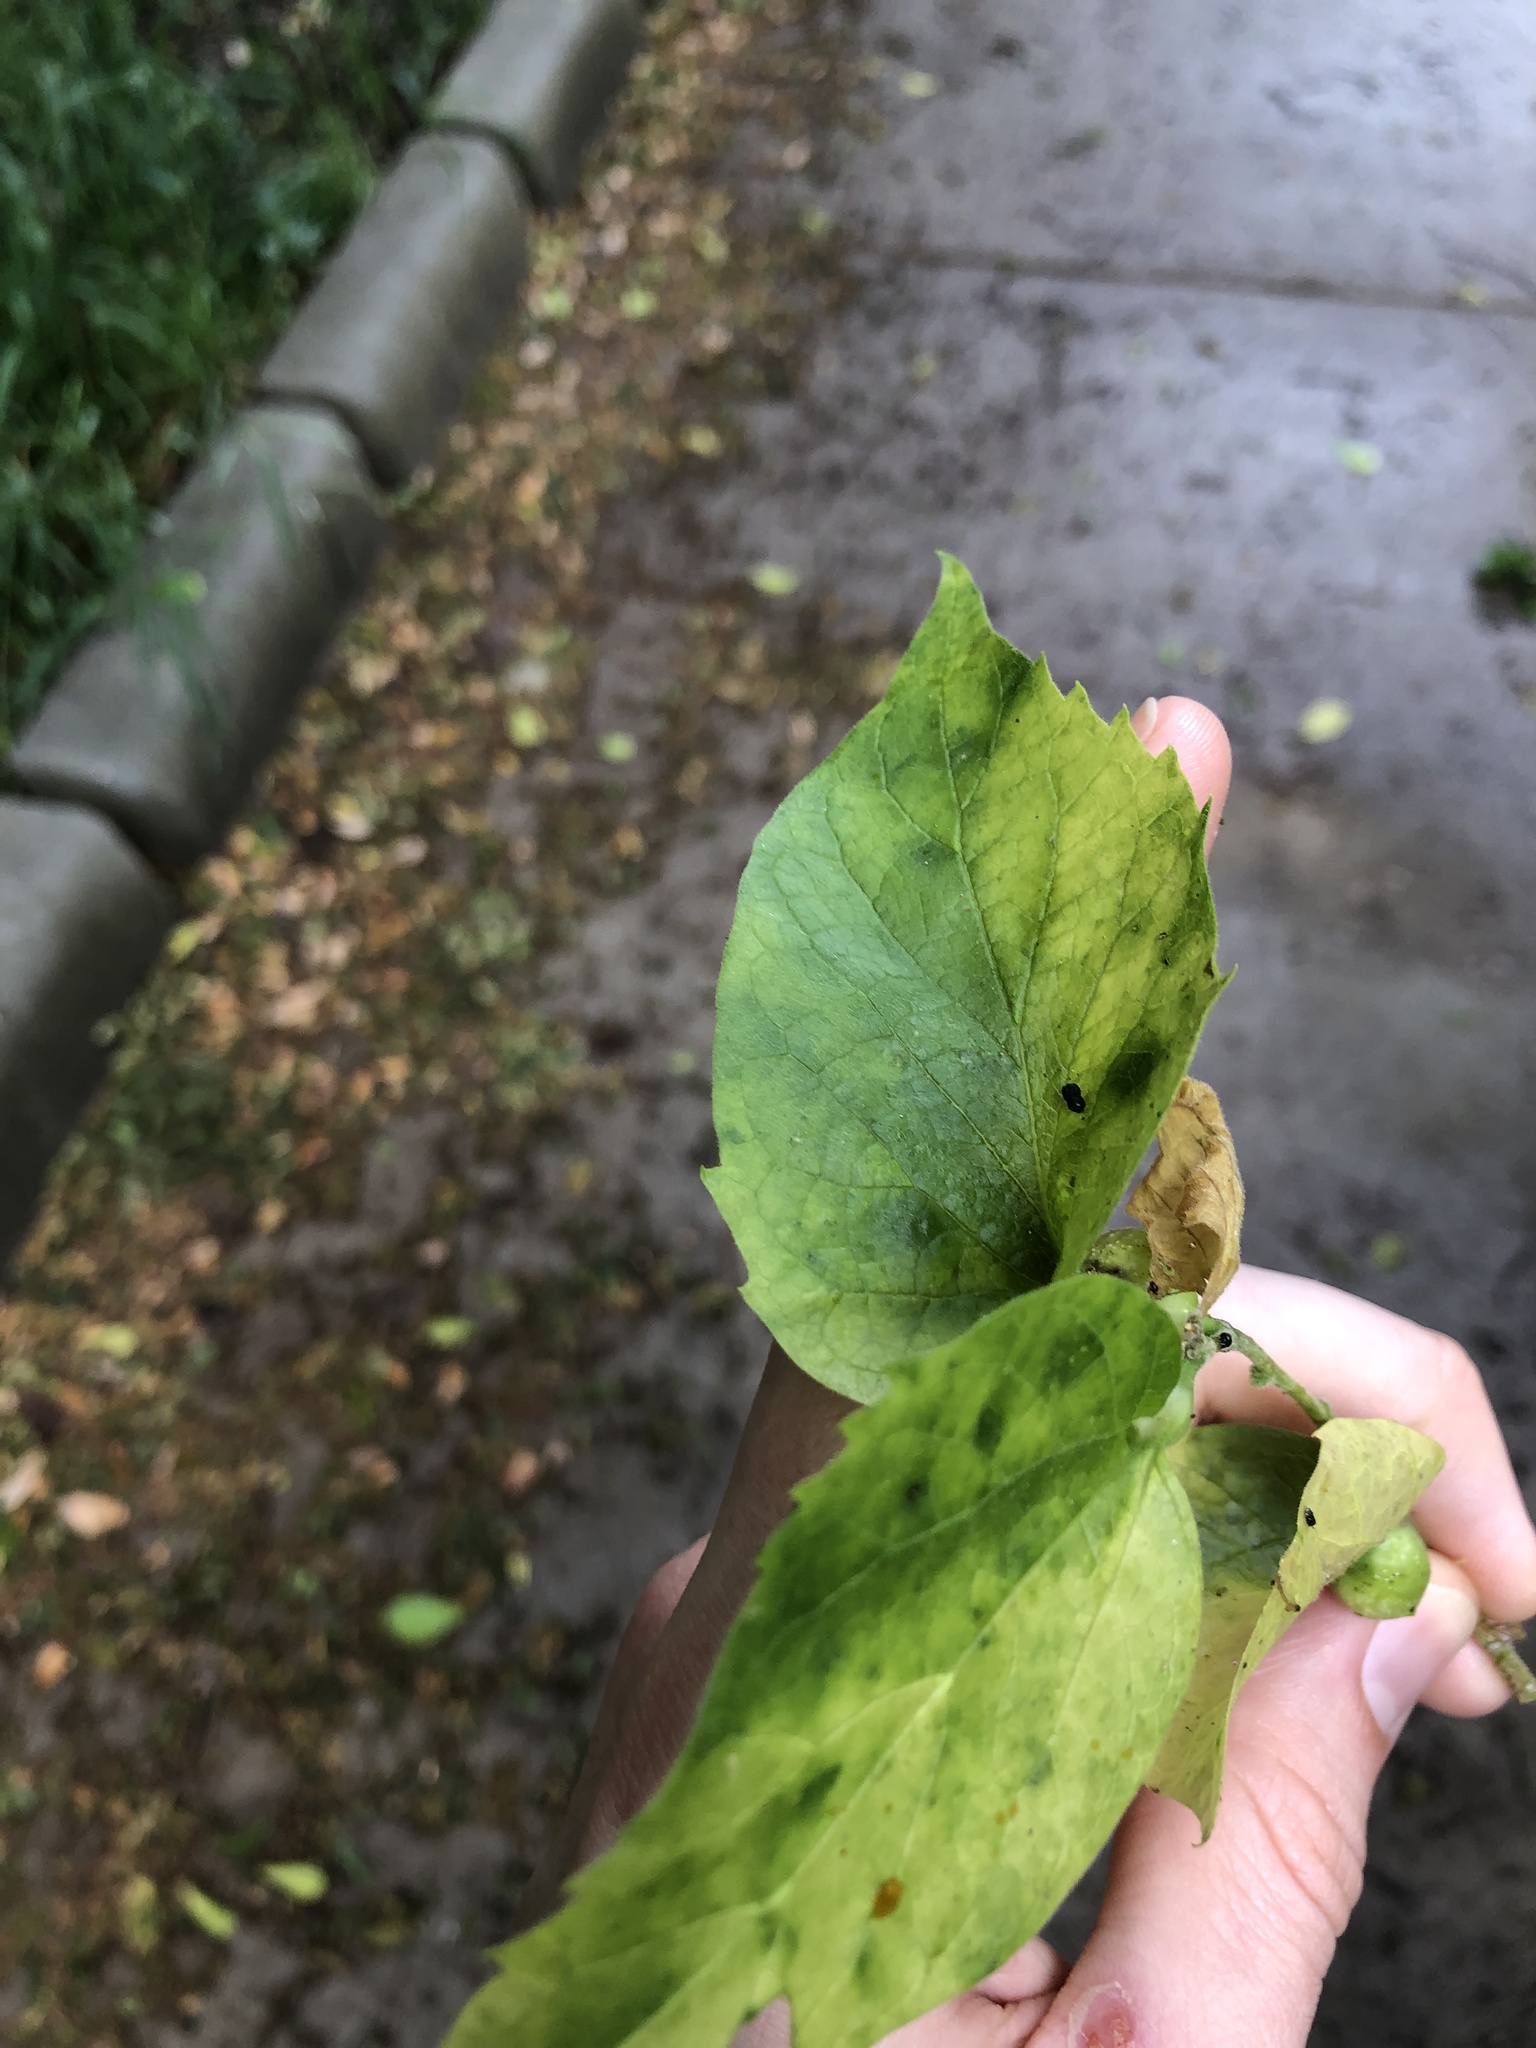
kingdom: Animalia
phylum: Arthropoda
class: Insecta
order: Hemiptera
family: Aphalaridae
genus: Pachypsylla
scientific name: Pachypsylla venusta
